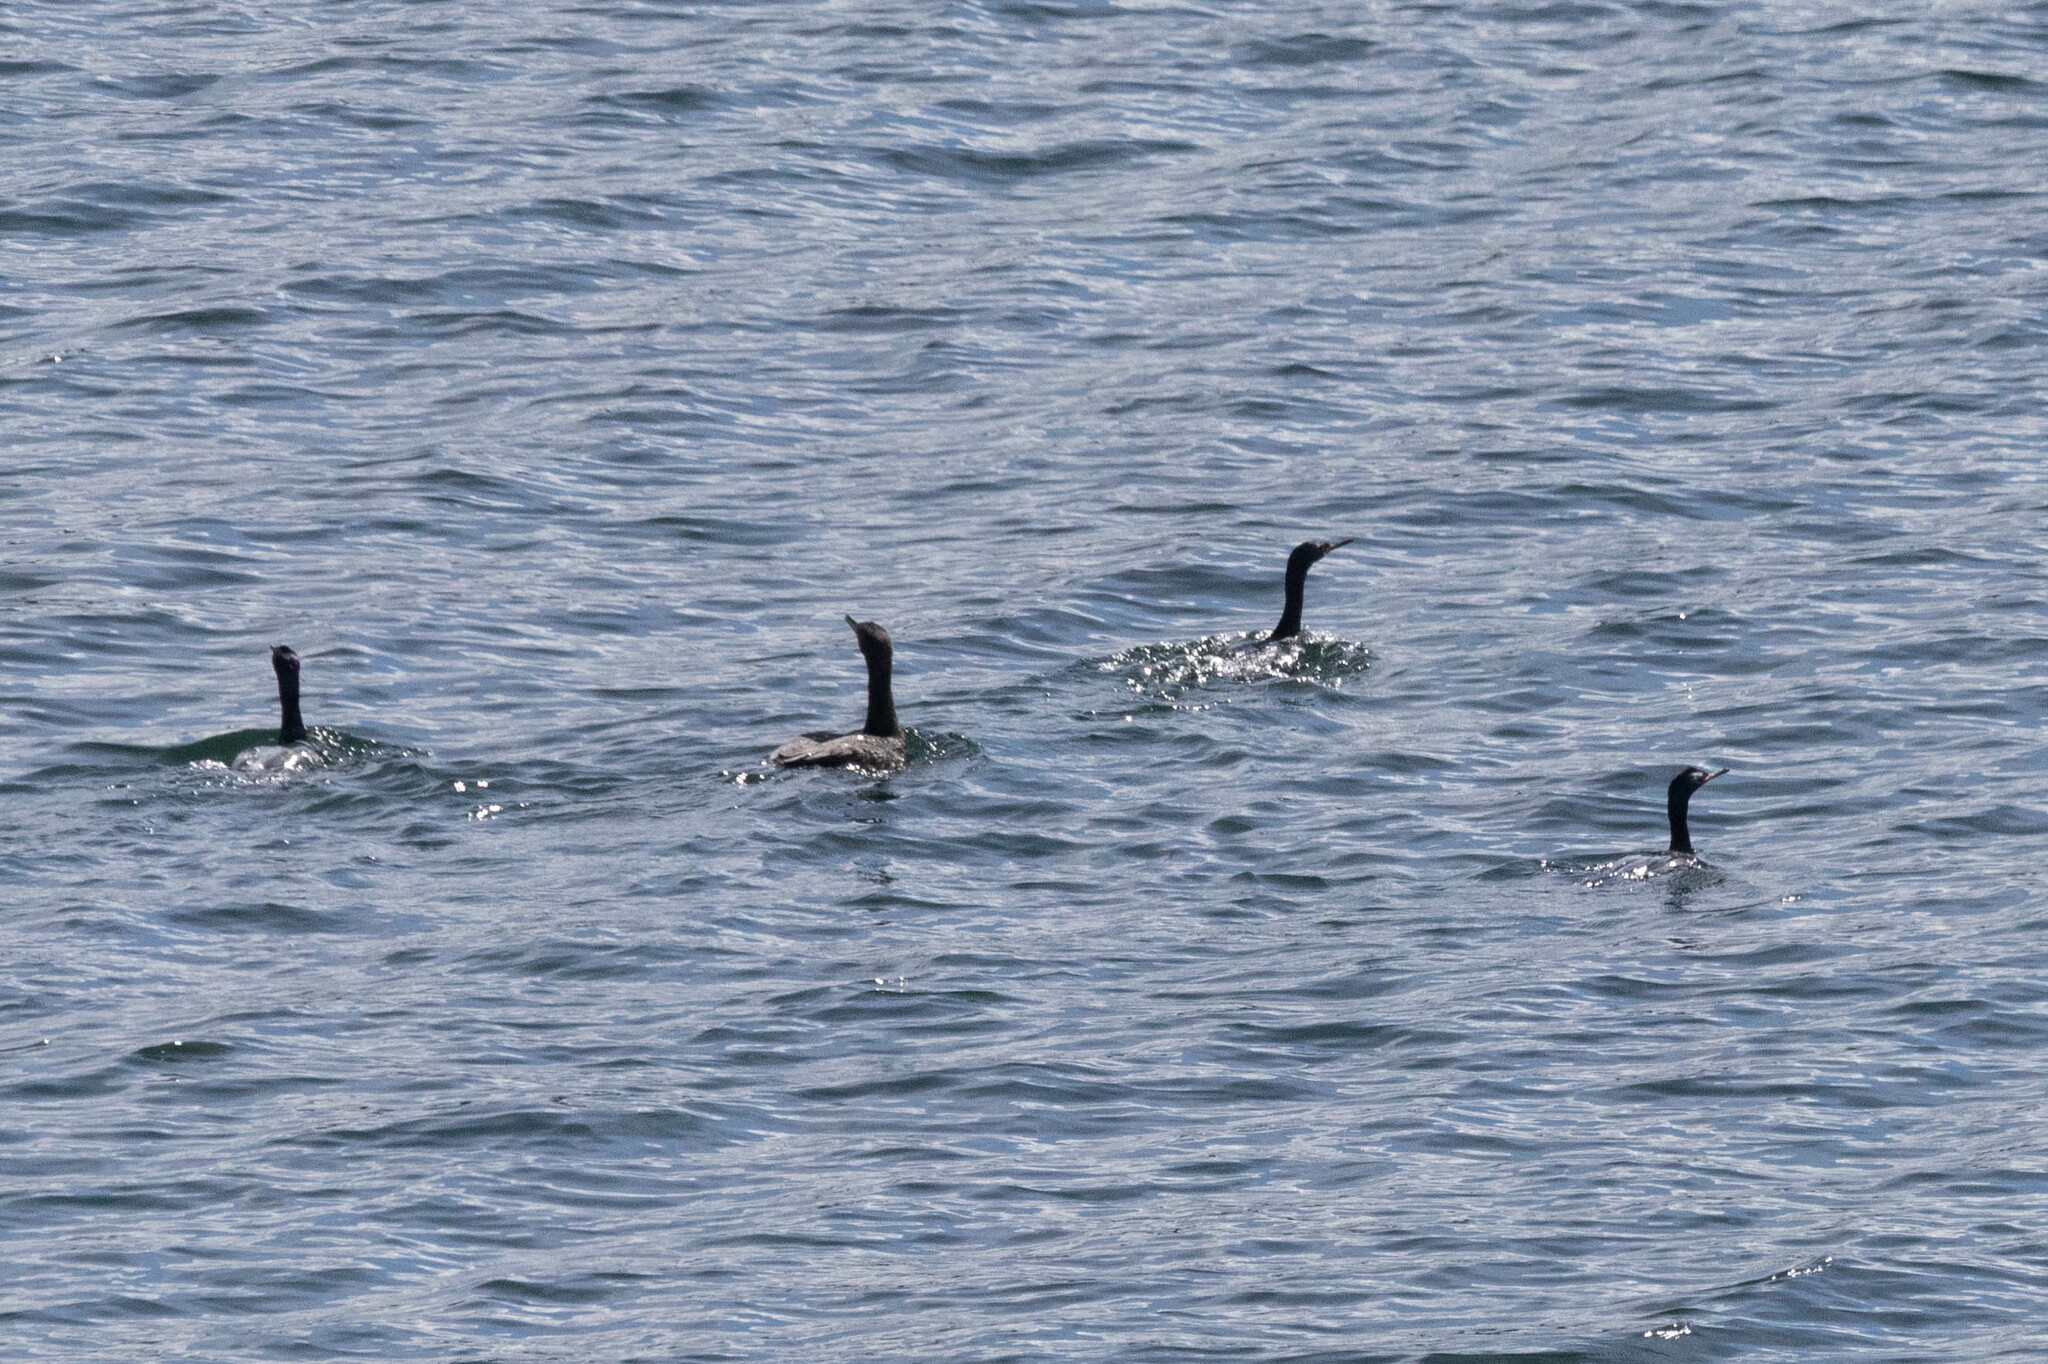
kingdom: Animalia
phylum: Chordata
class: Aves
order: Suliformes
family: Phalacrocoracidae
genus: Phalacrocorax
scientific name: Phalacrocorax pelagicus
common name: Pelagic cormorant
